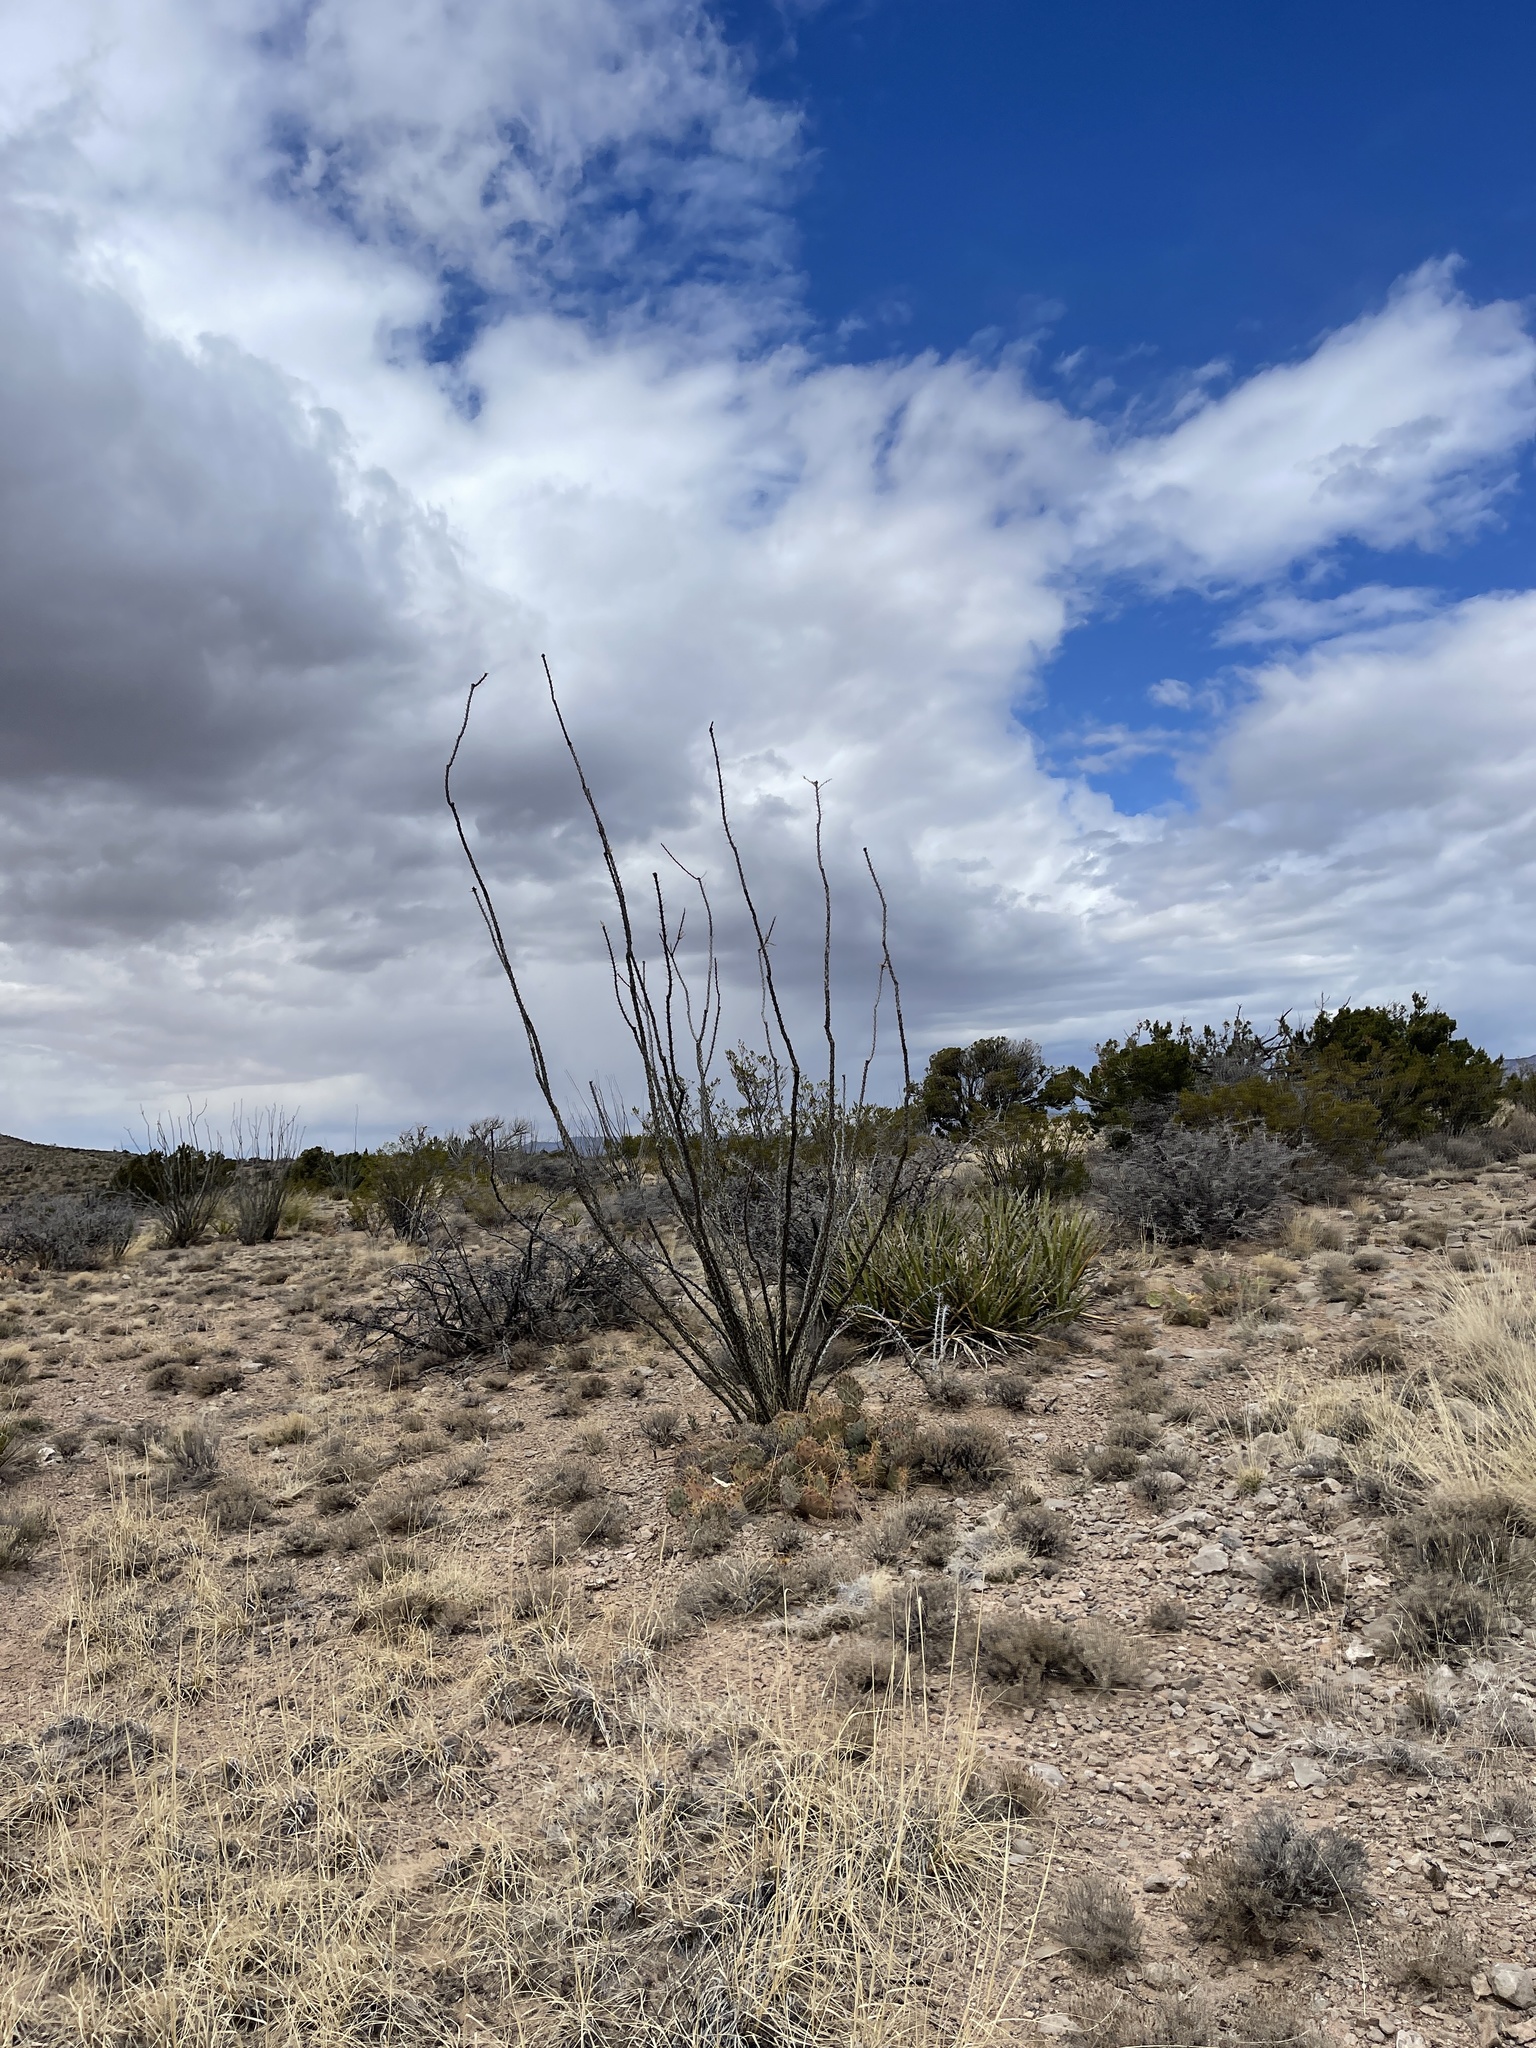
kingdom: Plantae
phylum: Tracheophyta
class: Magnoliopsida
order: Ericales
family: Fouquieriaceae
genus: Fouquieria
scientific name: Fouquieria splendens
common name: Vine-cactus
